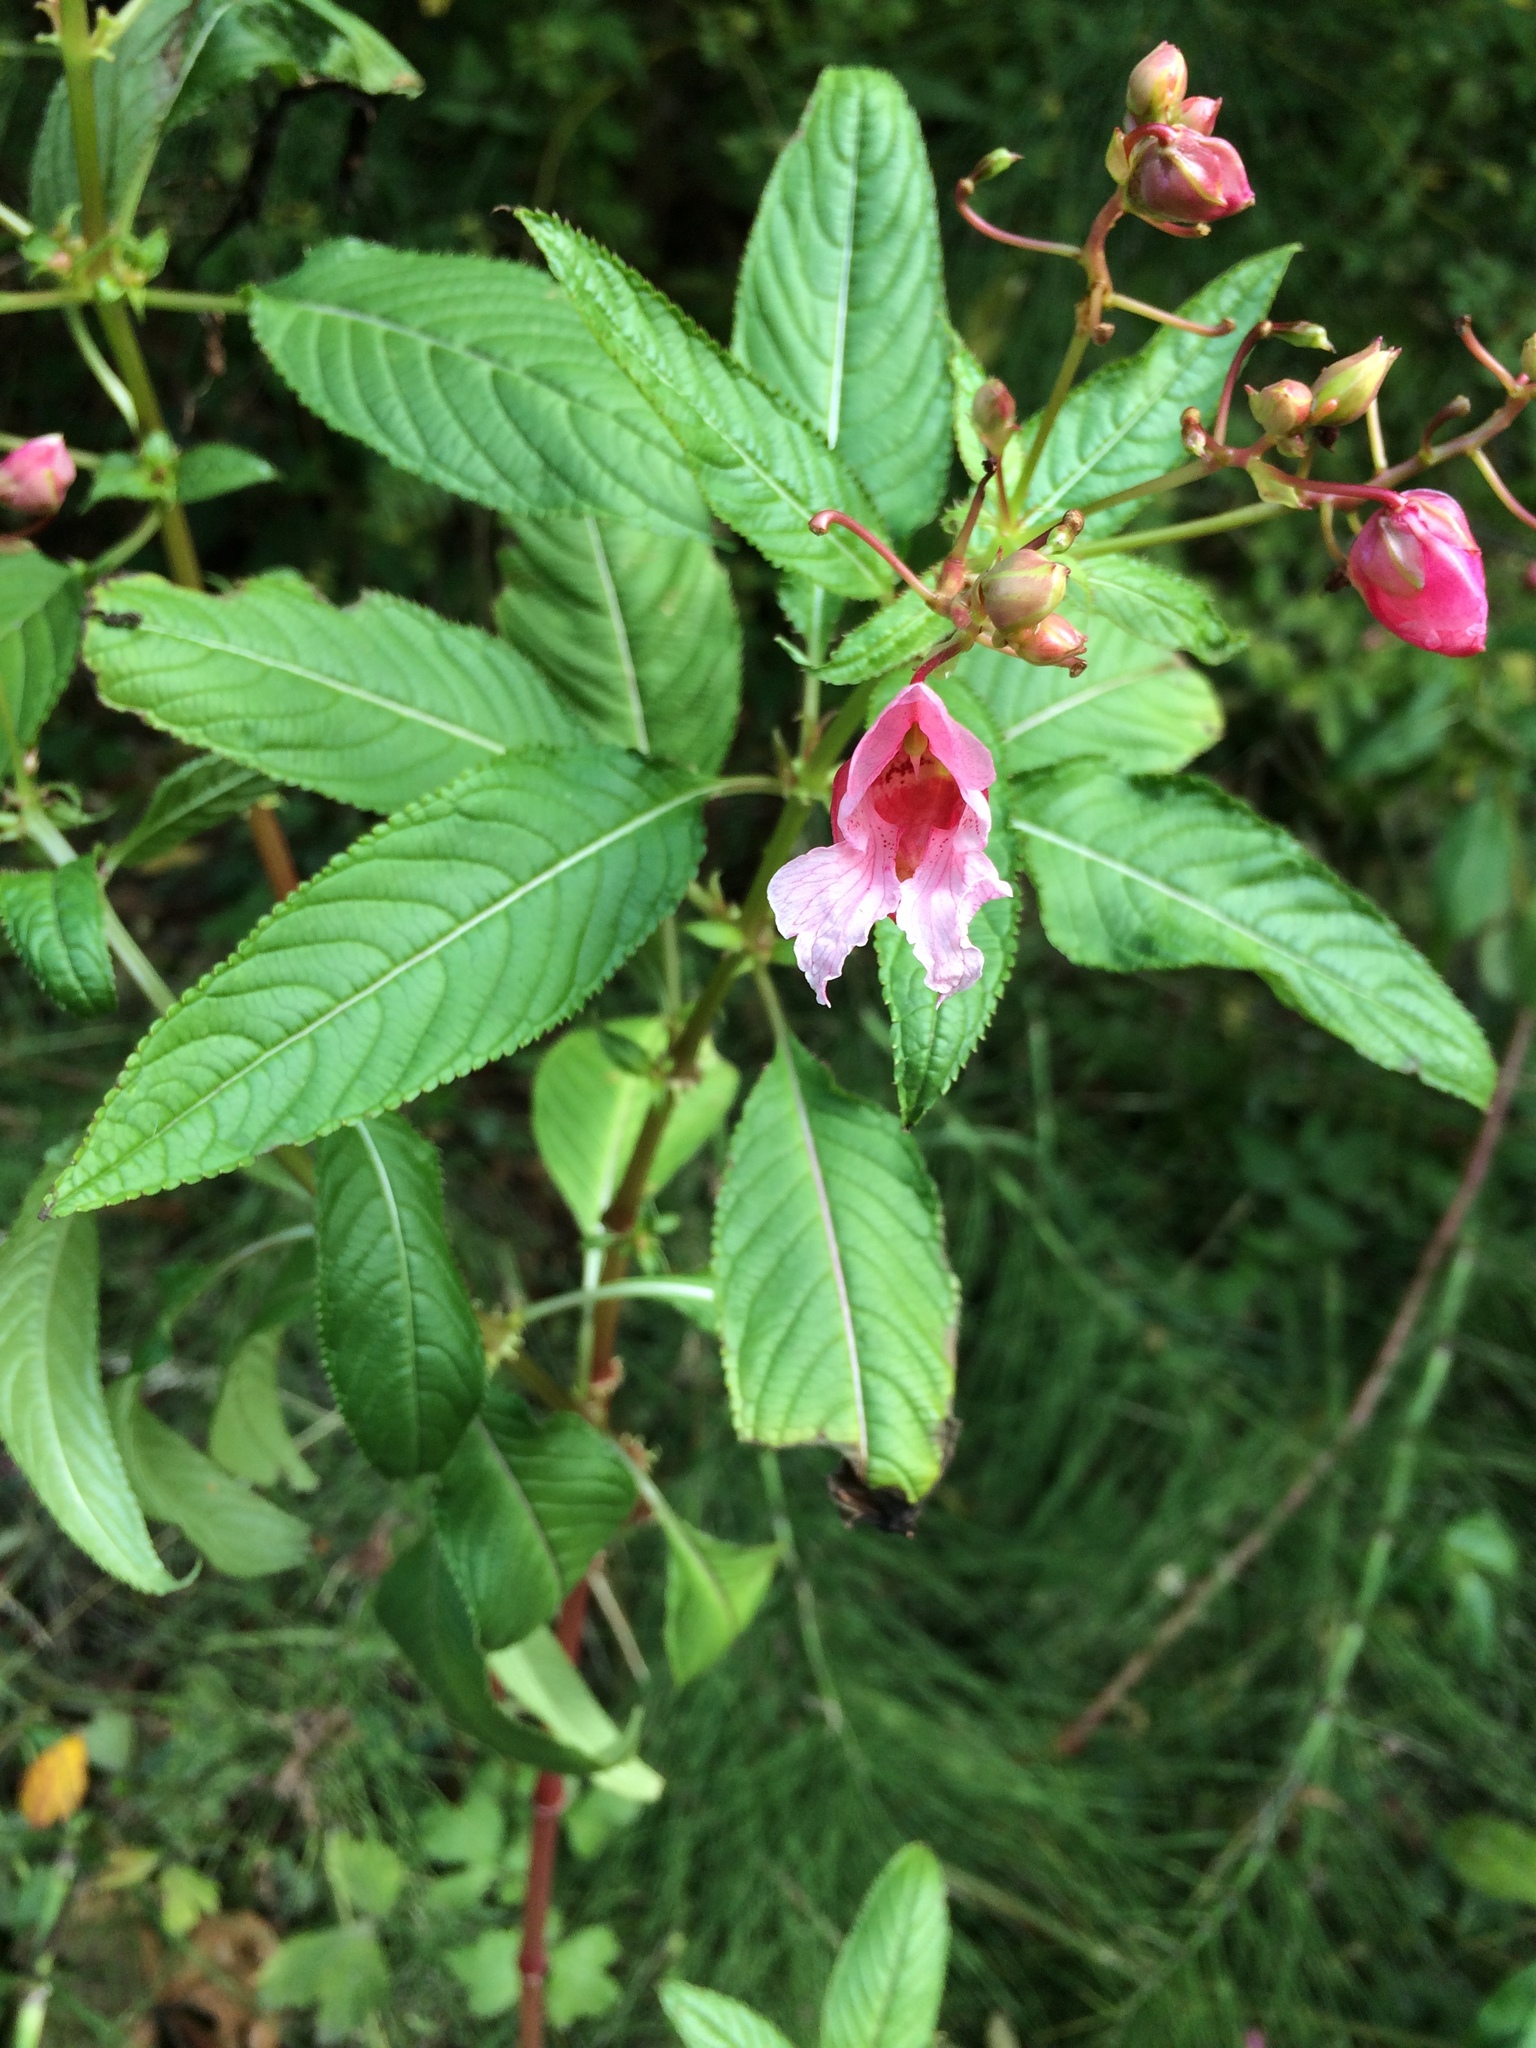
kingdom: Plantae
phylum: Tracheophyta
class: Magnoliopsida
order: Ericales
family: Balsaminaceae
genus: Impatiens
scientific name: Impatiens glandulifera
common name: Himalayan balsam
